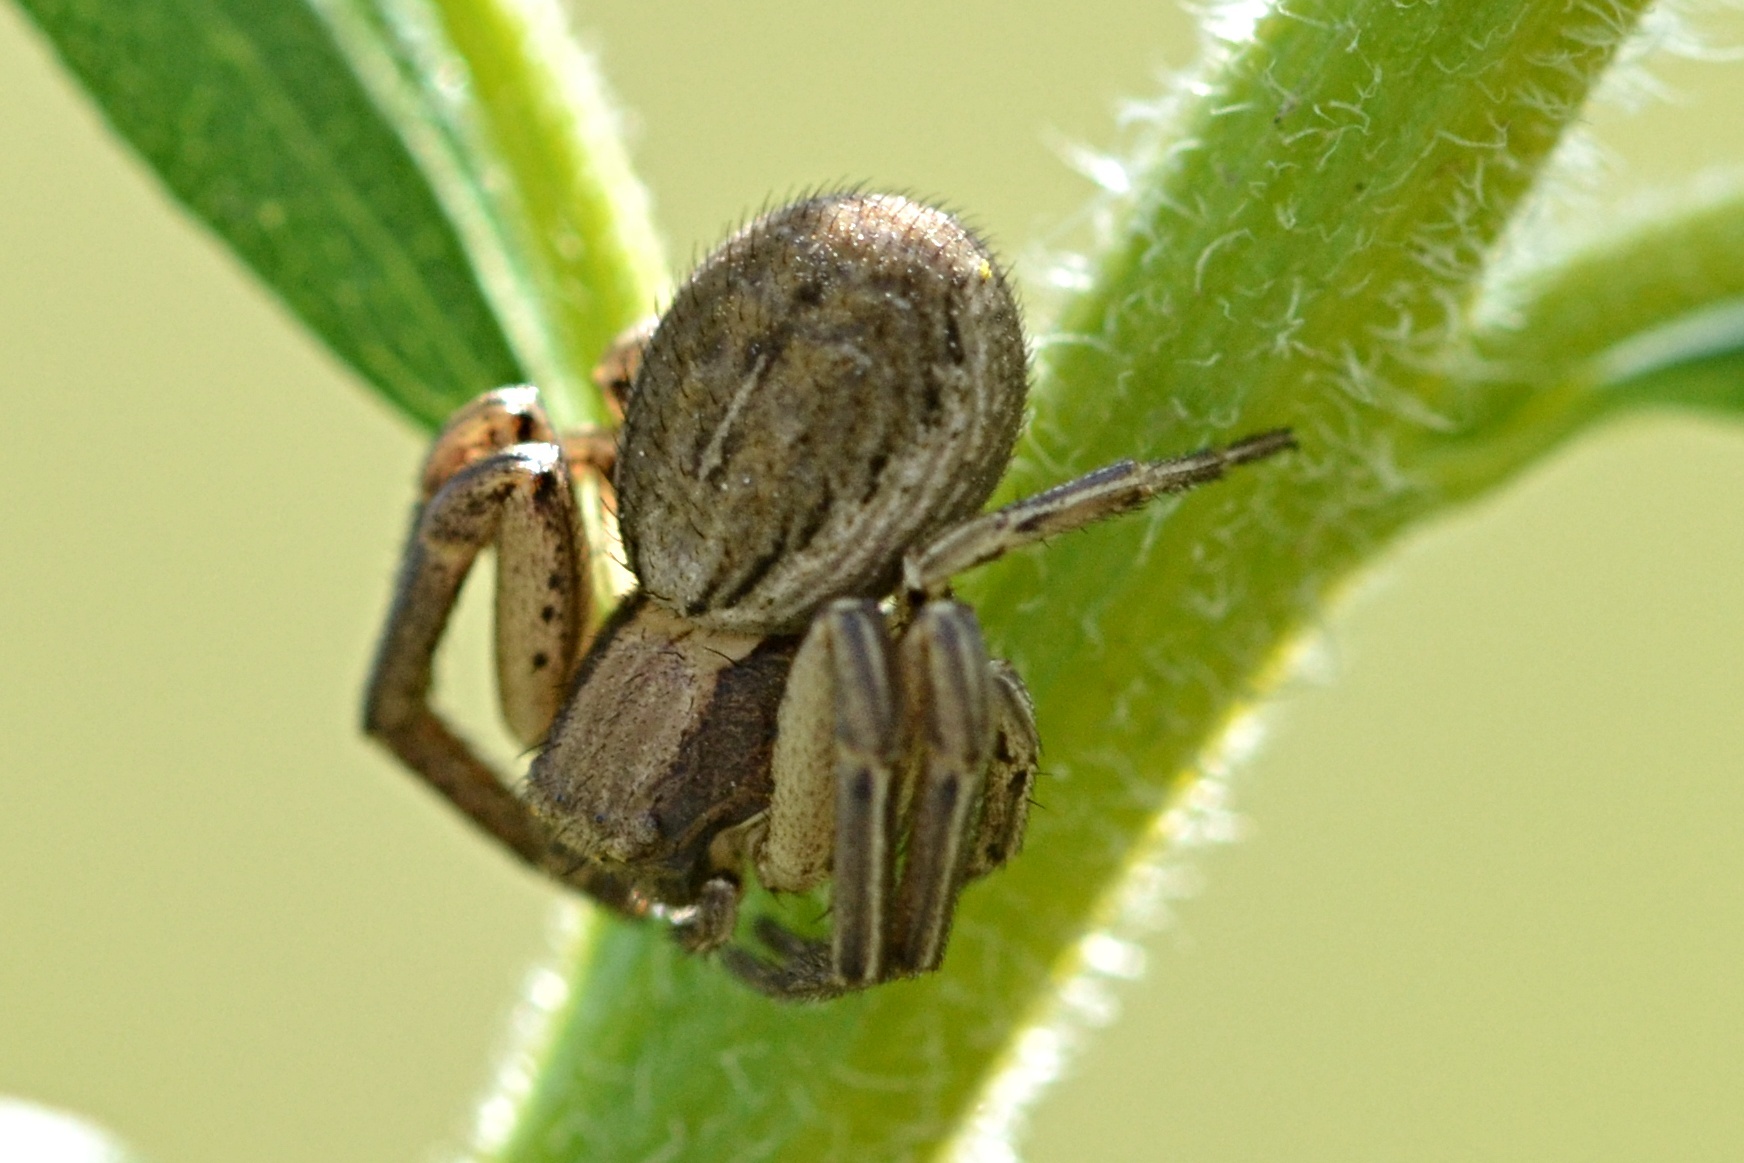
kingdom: Animalia
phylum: Arthropoda
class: Arachnida
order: Araneae
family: Thomisidae
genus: Spiracme
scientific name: Spiracme striatipes
